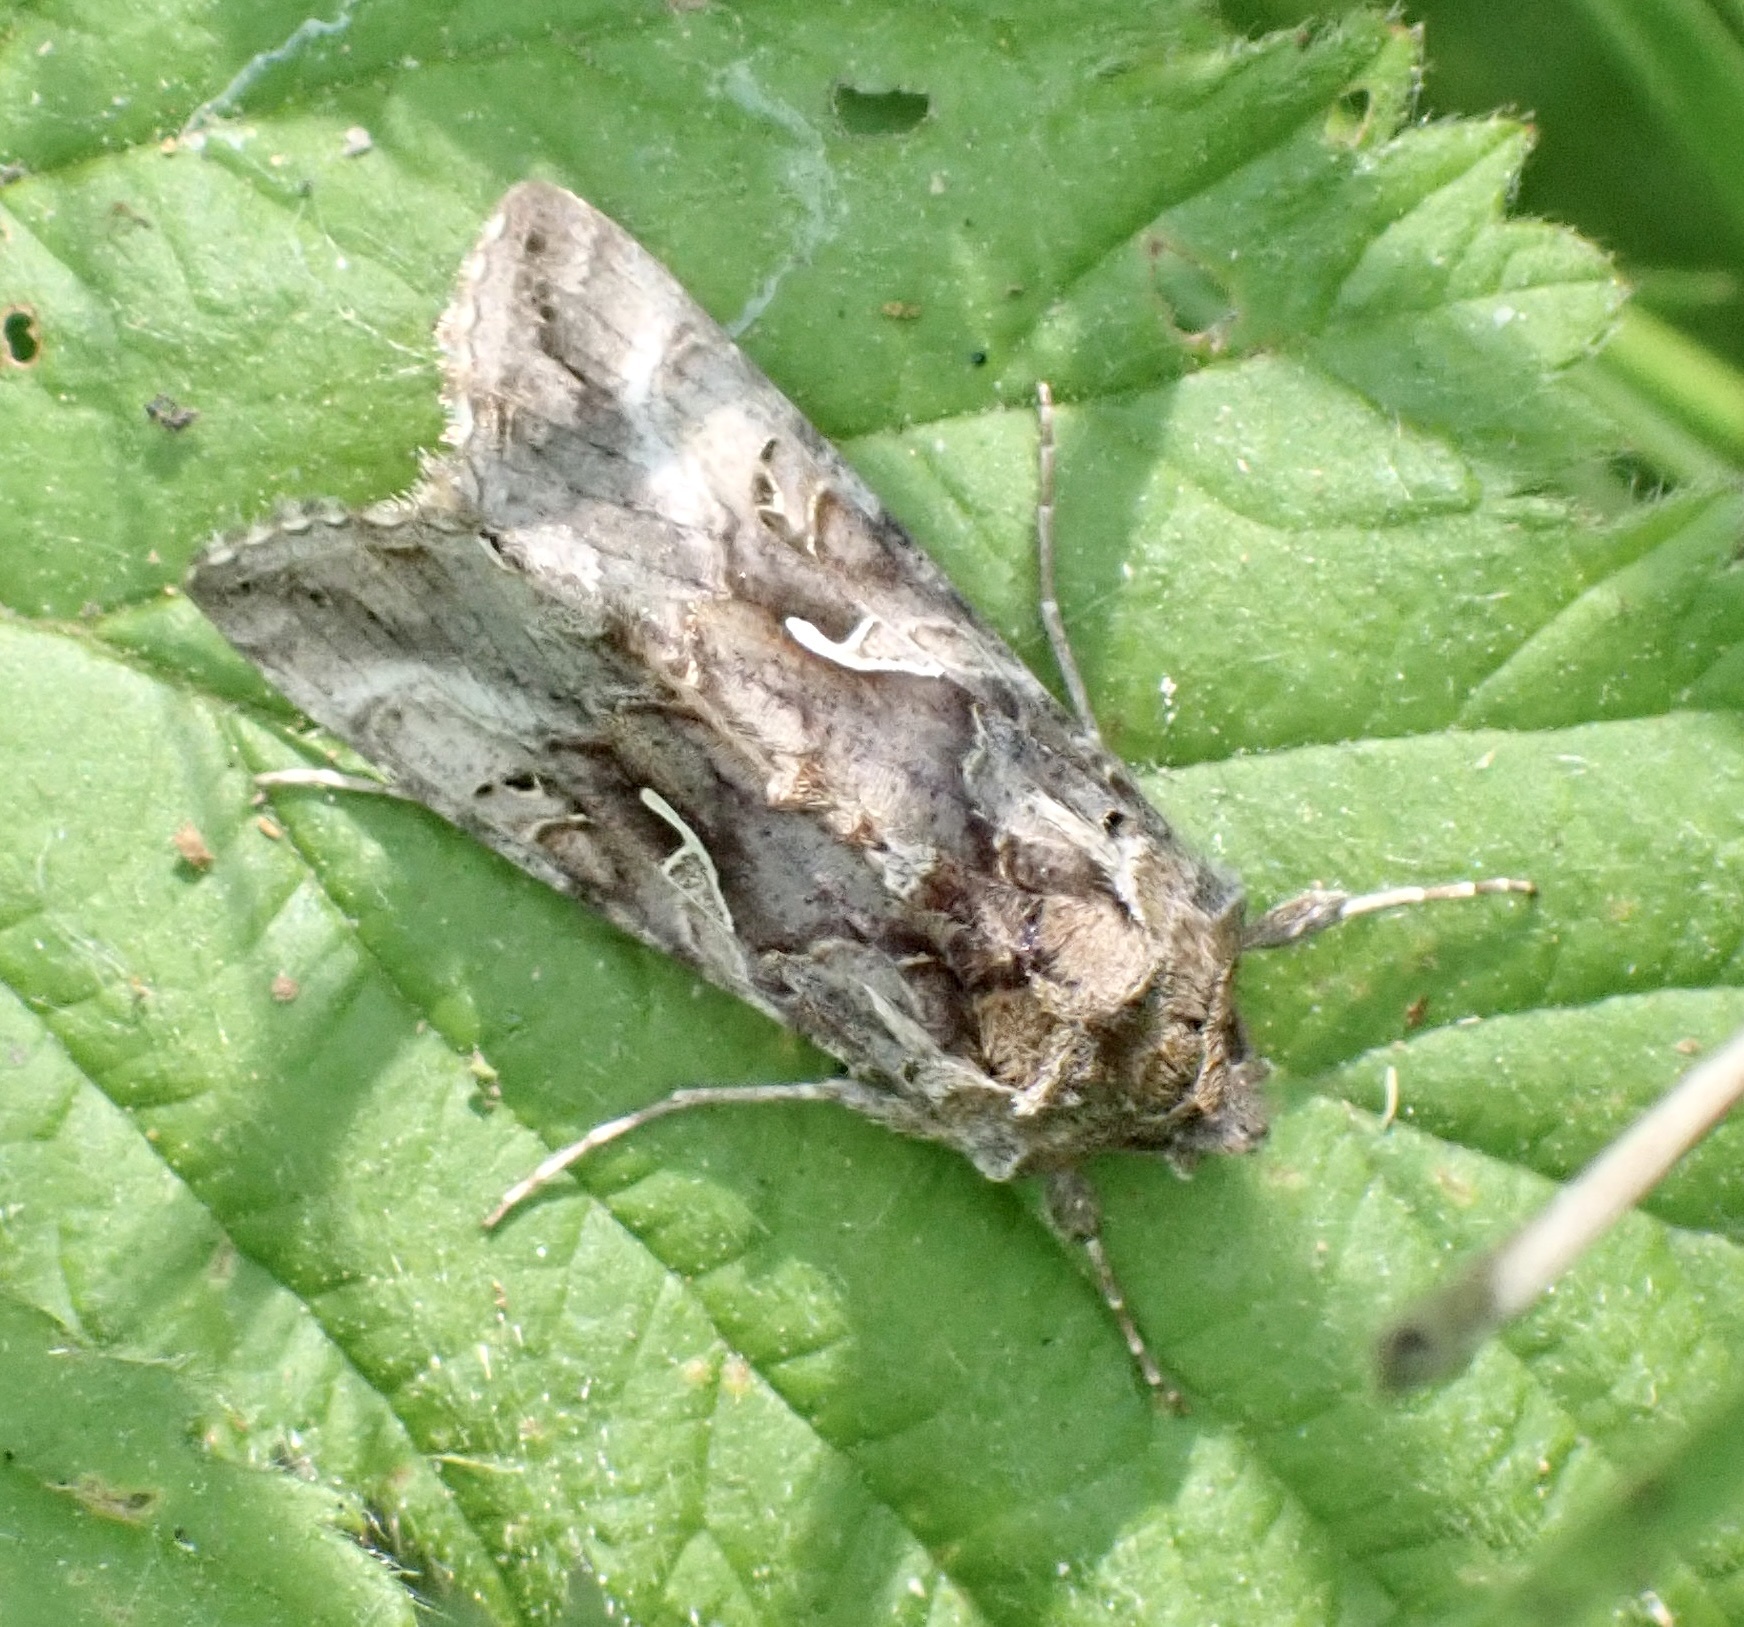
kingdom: Animalia
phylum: Arthropoda
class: Insecta
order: Lepidoptera
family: Noctuidae
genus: Autographa
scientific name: Autographa gamma
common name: Silver y
